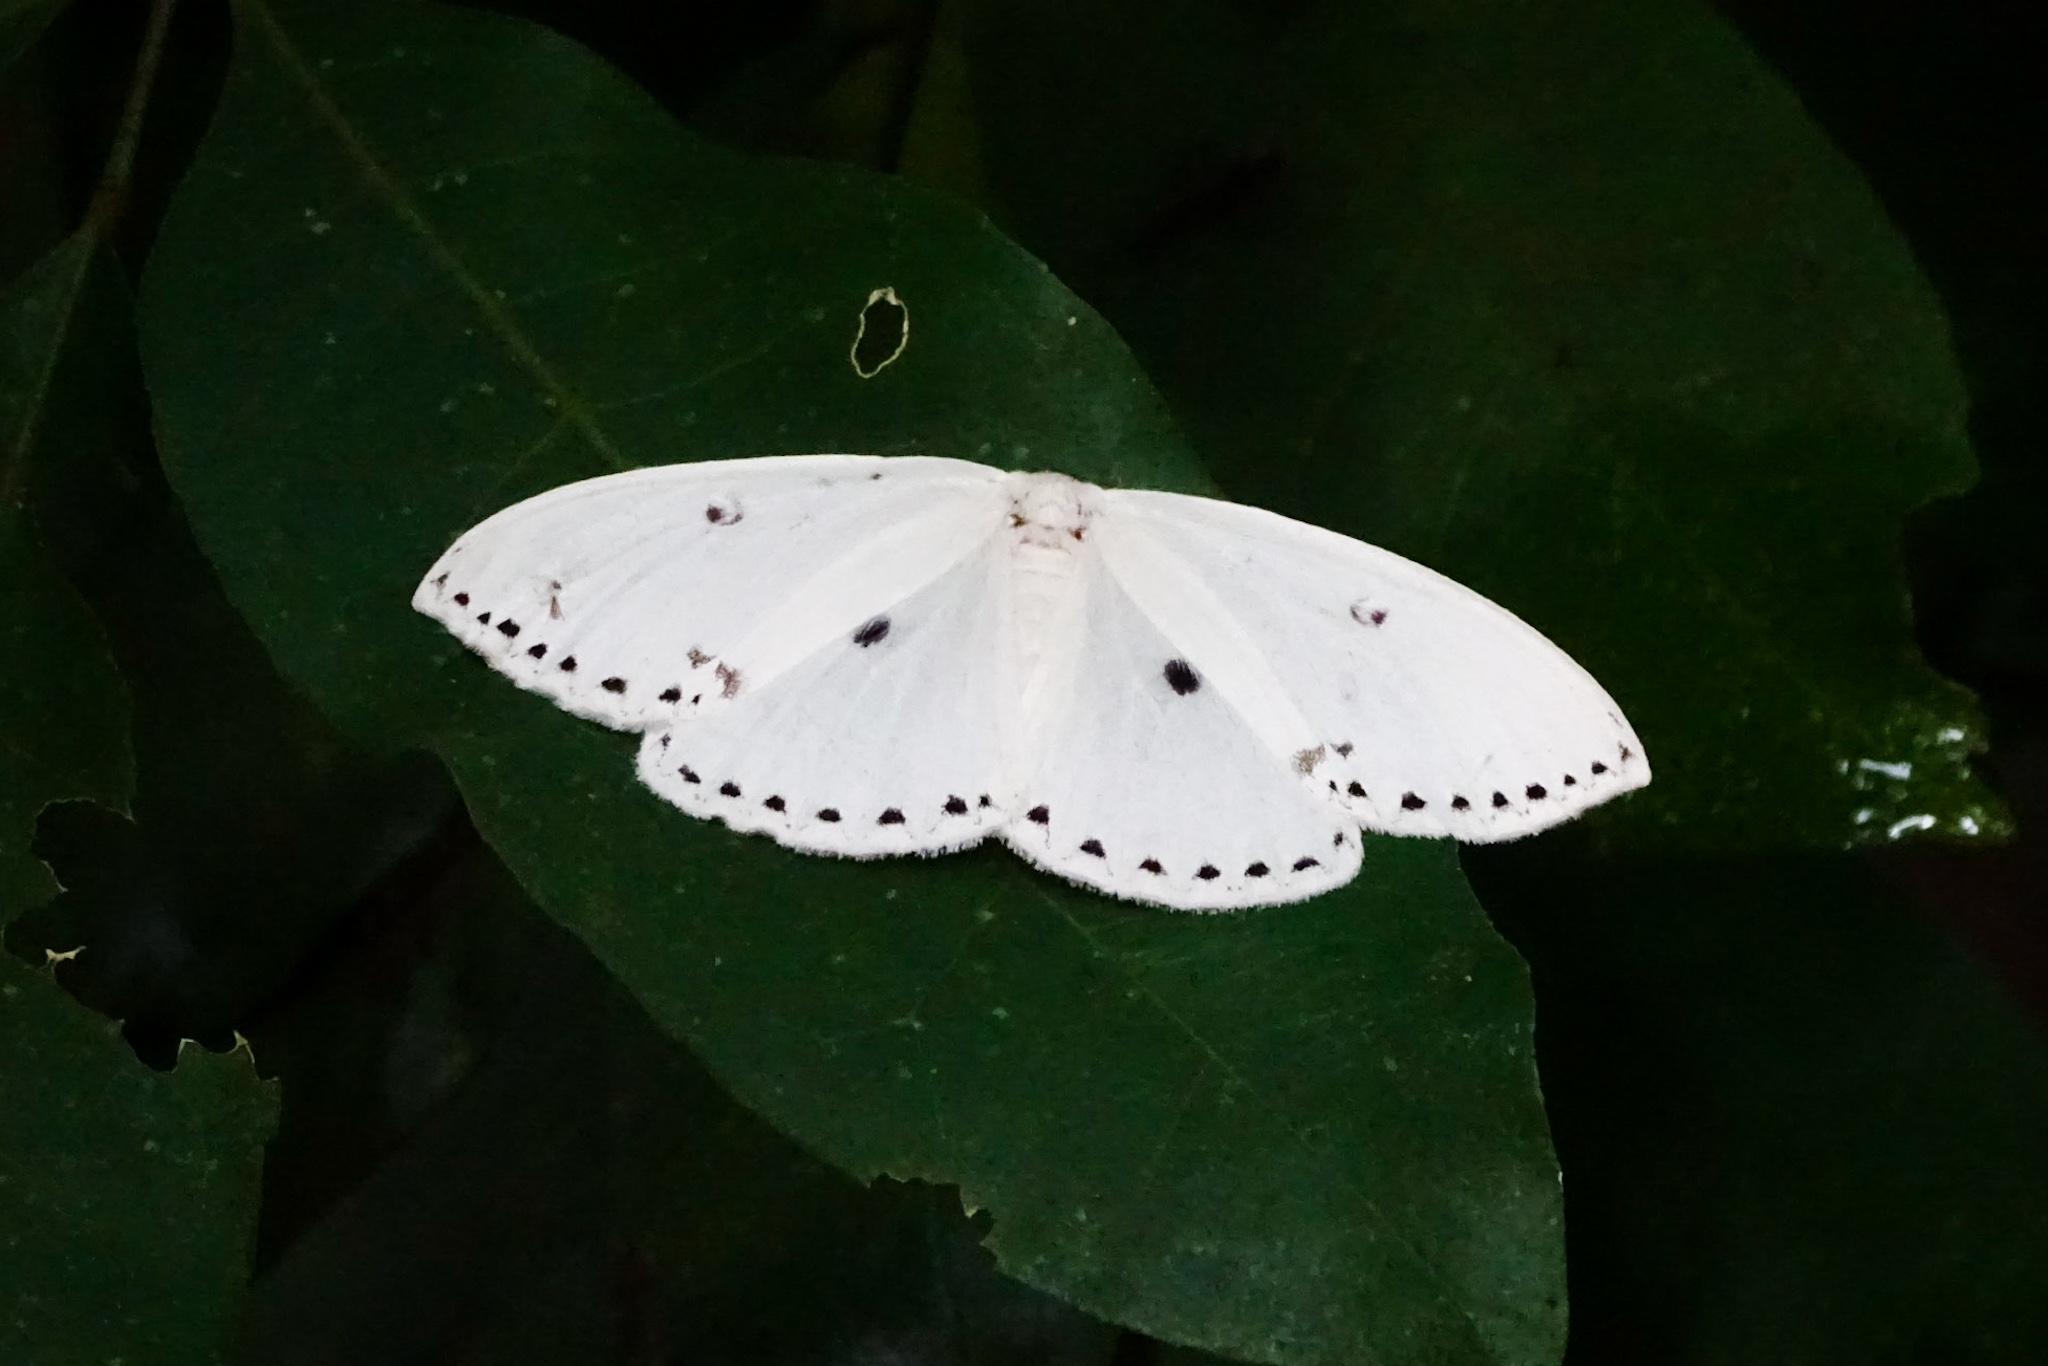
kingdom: Animalia
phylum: Arthropoda
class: Insecta
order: Lepidoptera
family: Drepanidae
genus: Cyclidia
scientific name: Cyclidia dictyaria
